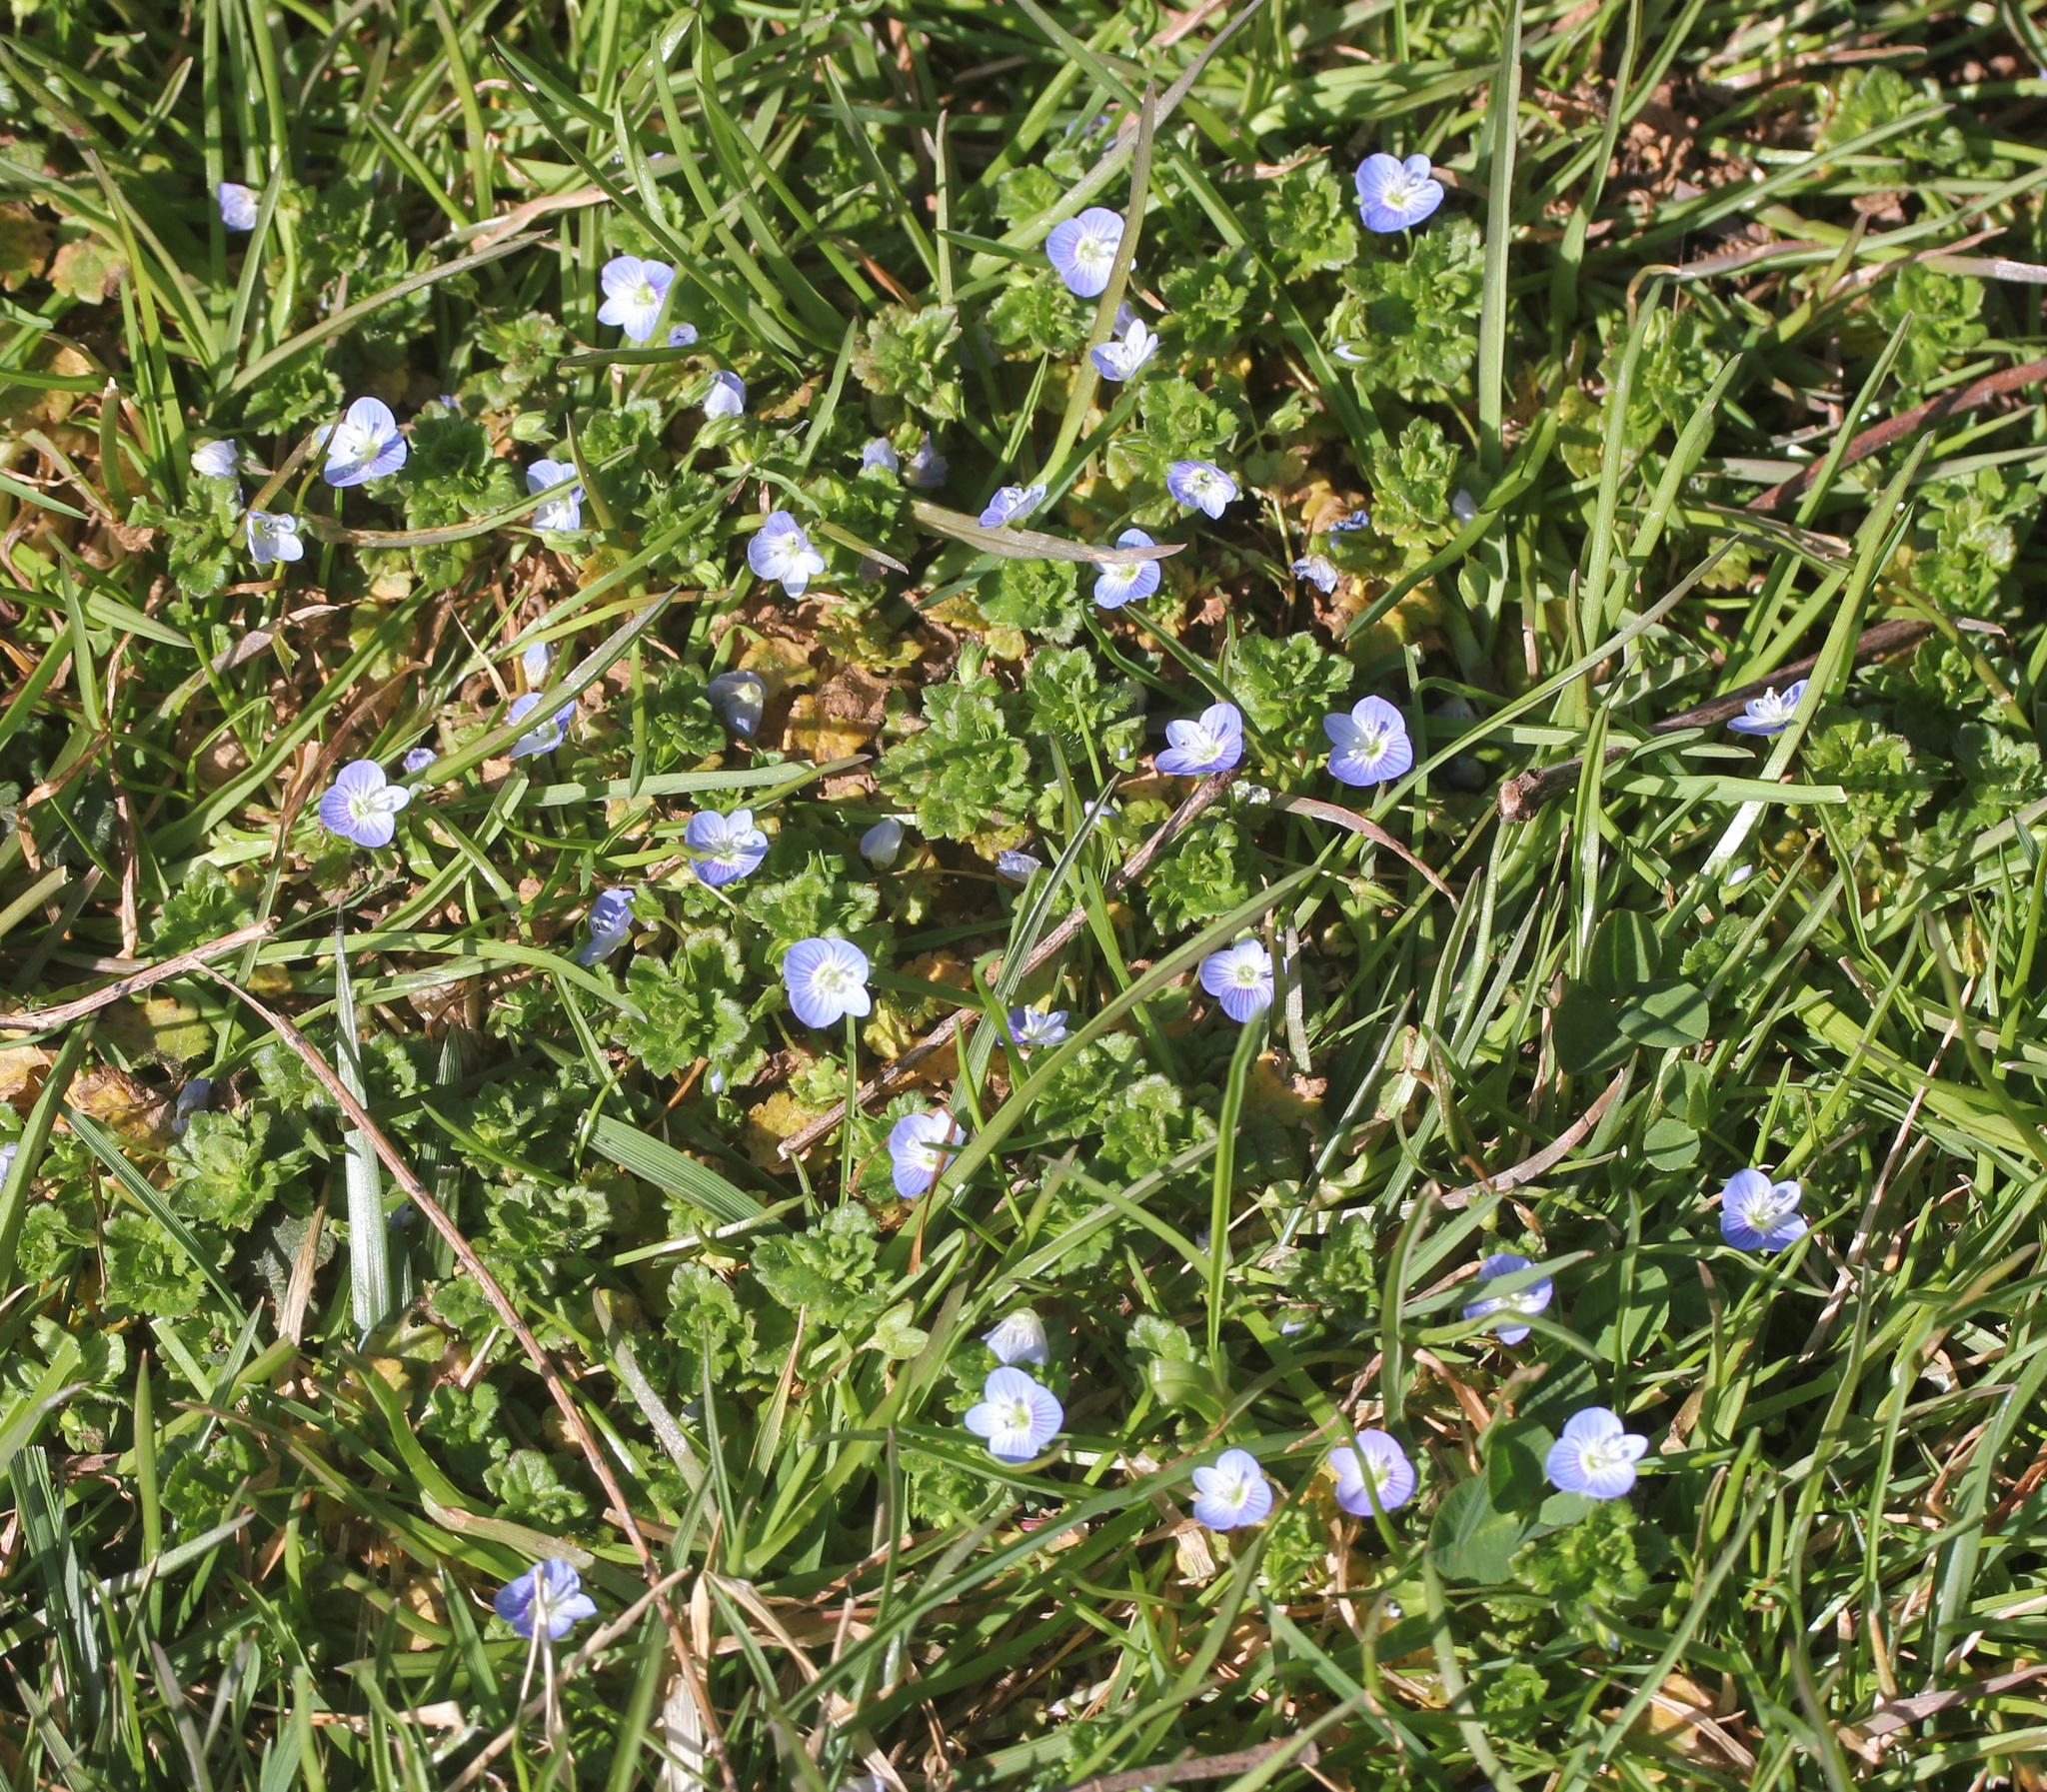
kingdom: Plantae
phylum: Tracheophyta
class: Magnoliopsida
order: Lamiales
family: Plantaginaceae
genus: Veronica
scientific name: Veronica persica
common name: Common field-speedwell
